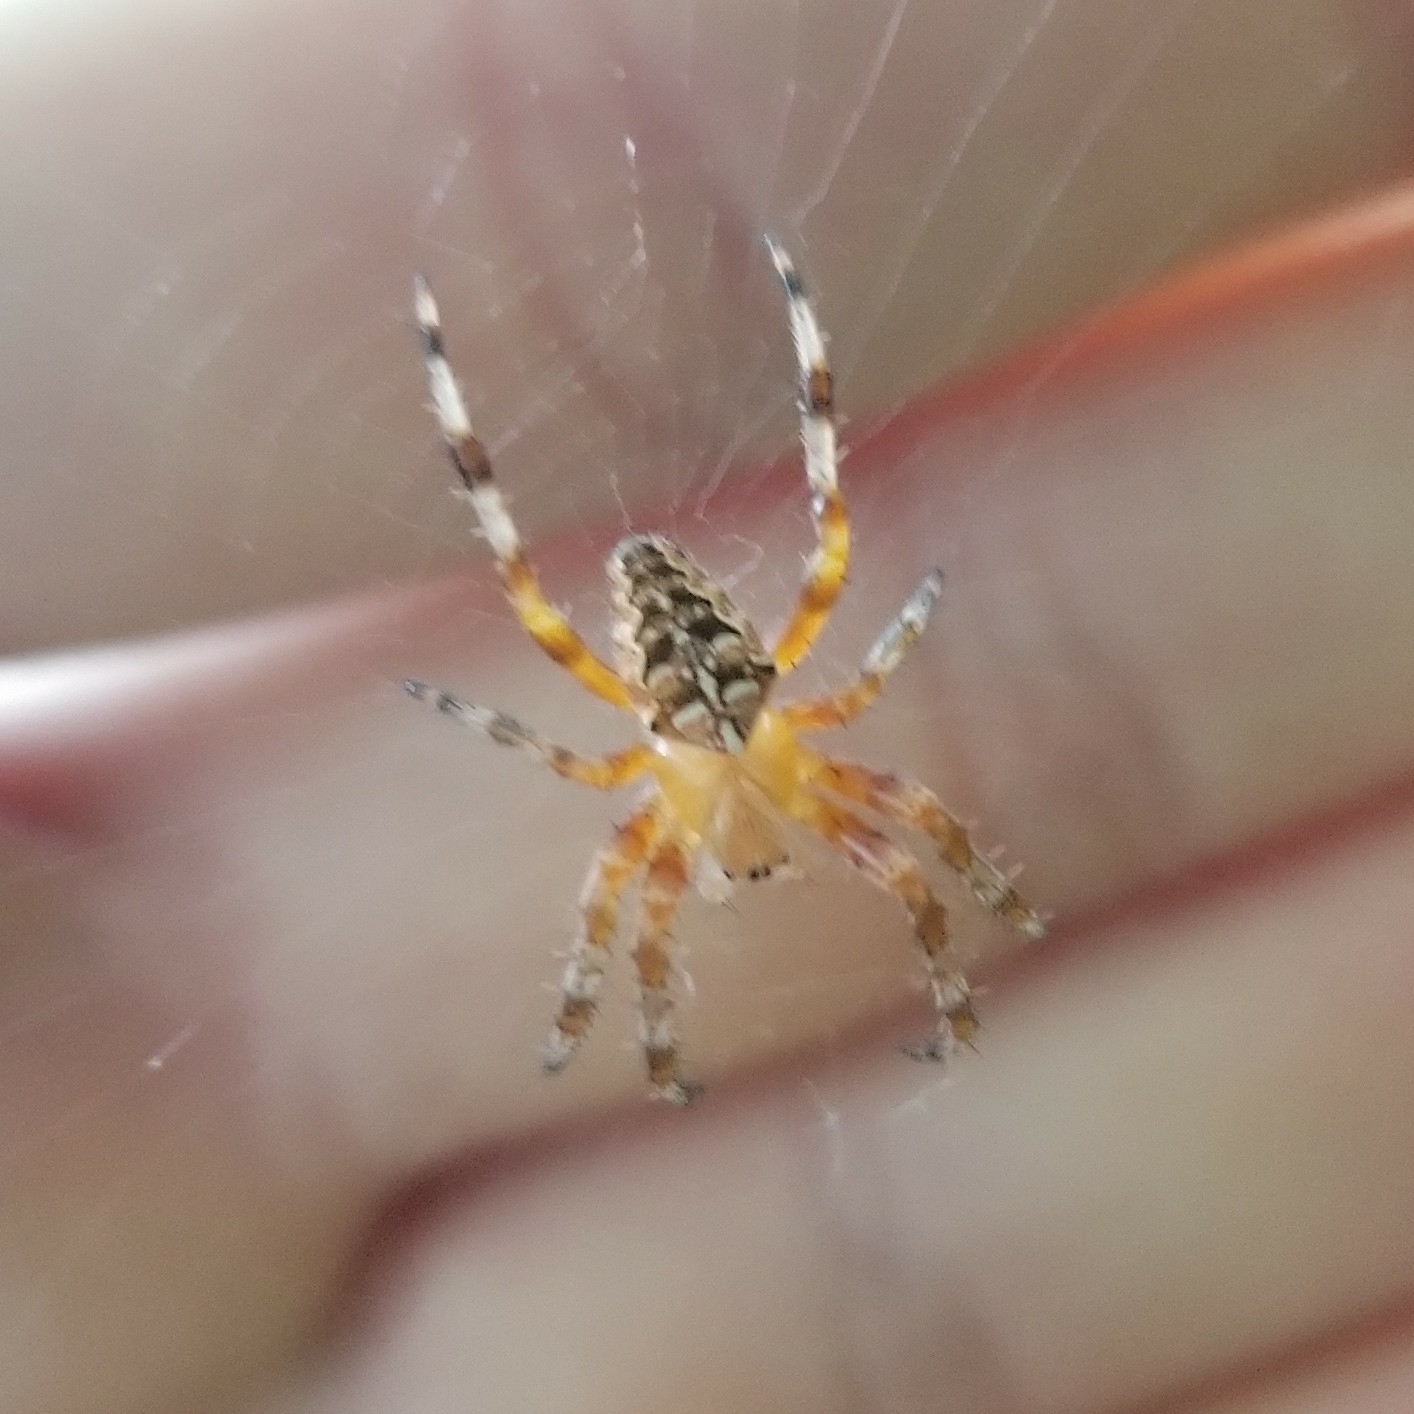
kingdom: Animalia
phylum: Arthropoda
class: Arachnida
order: Araneae
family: Araneidae
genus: Araneus
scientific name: Araneus diadematus
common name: Cross orbweaver
